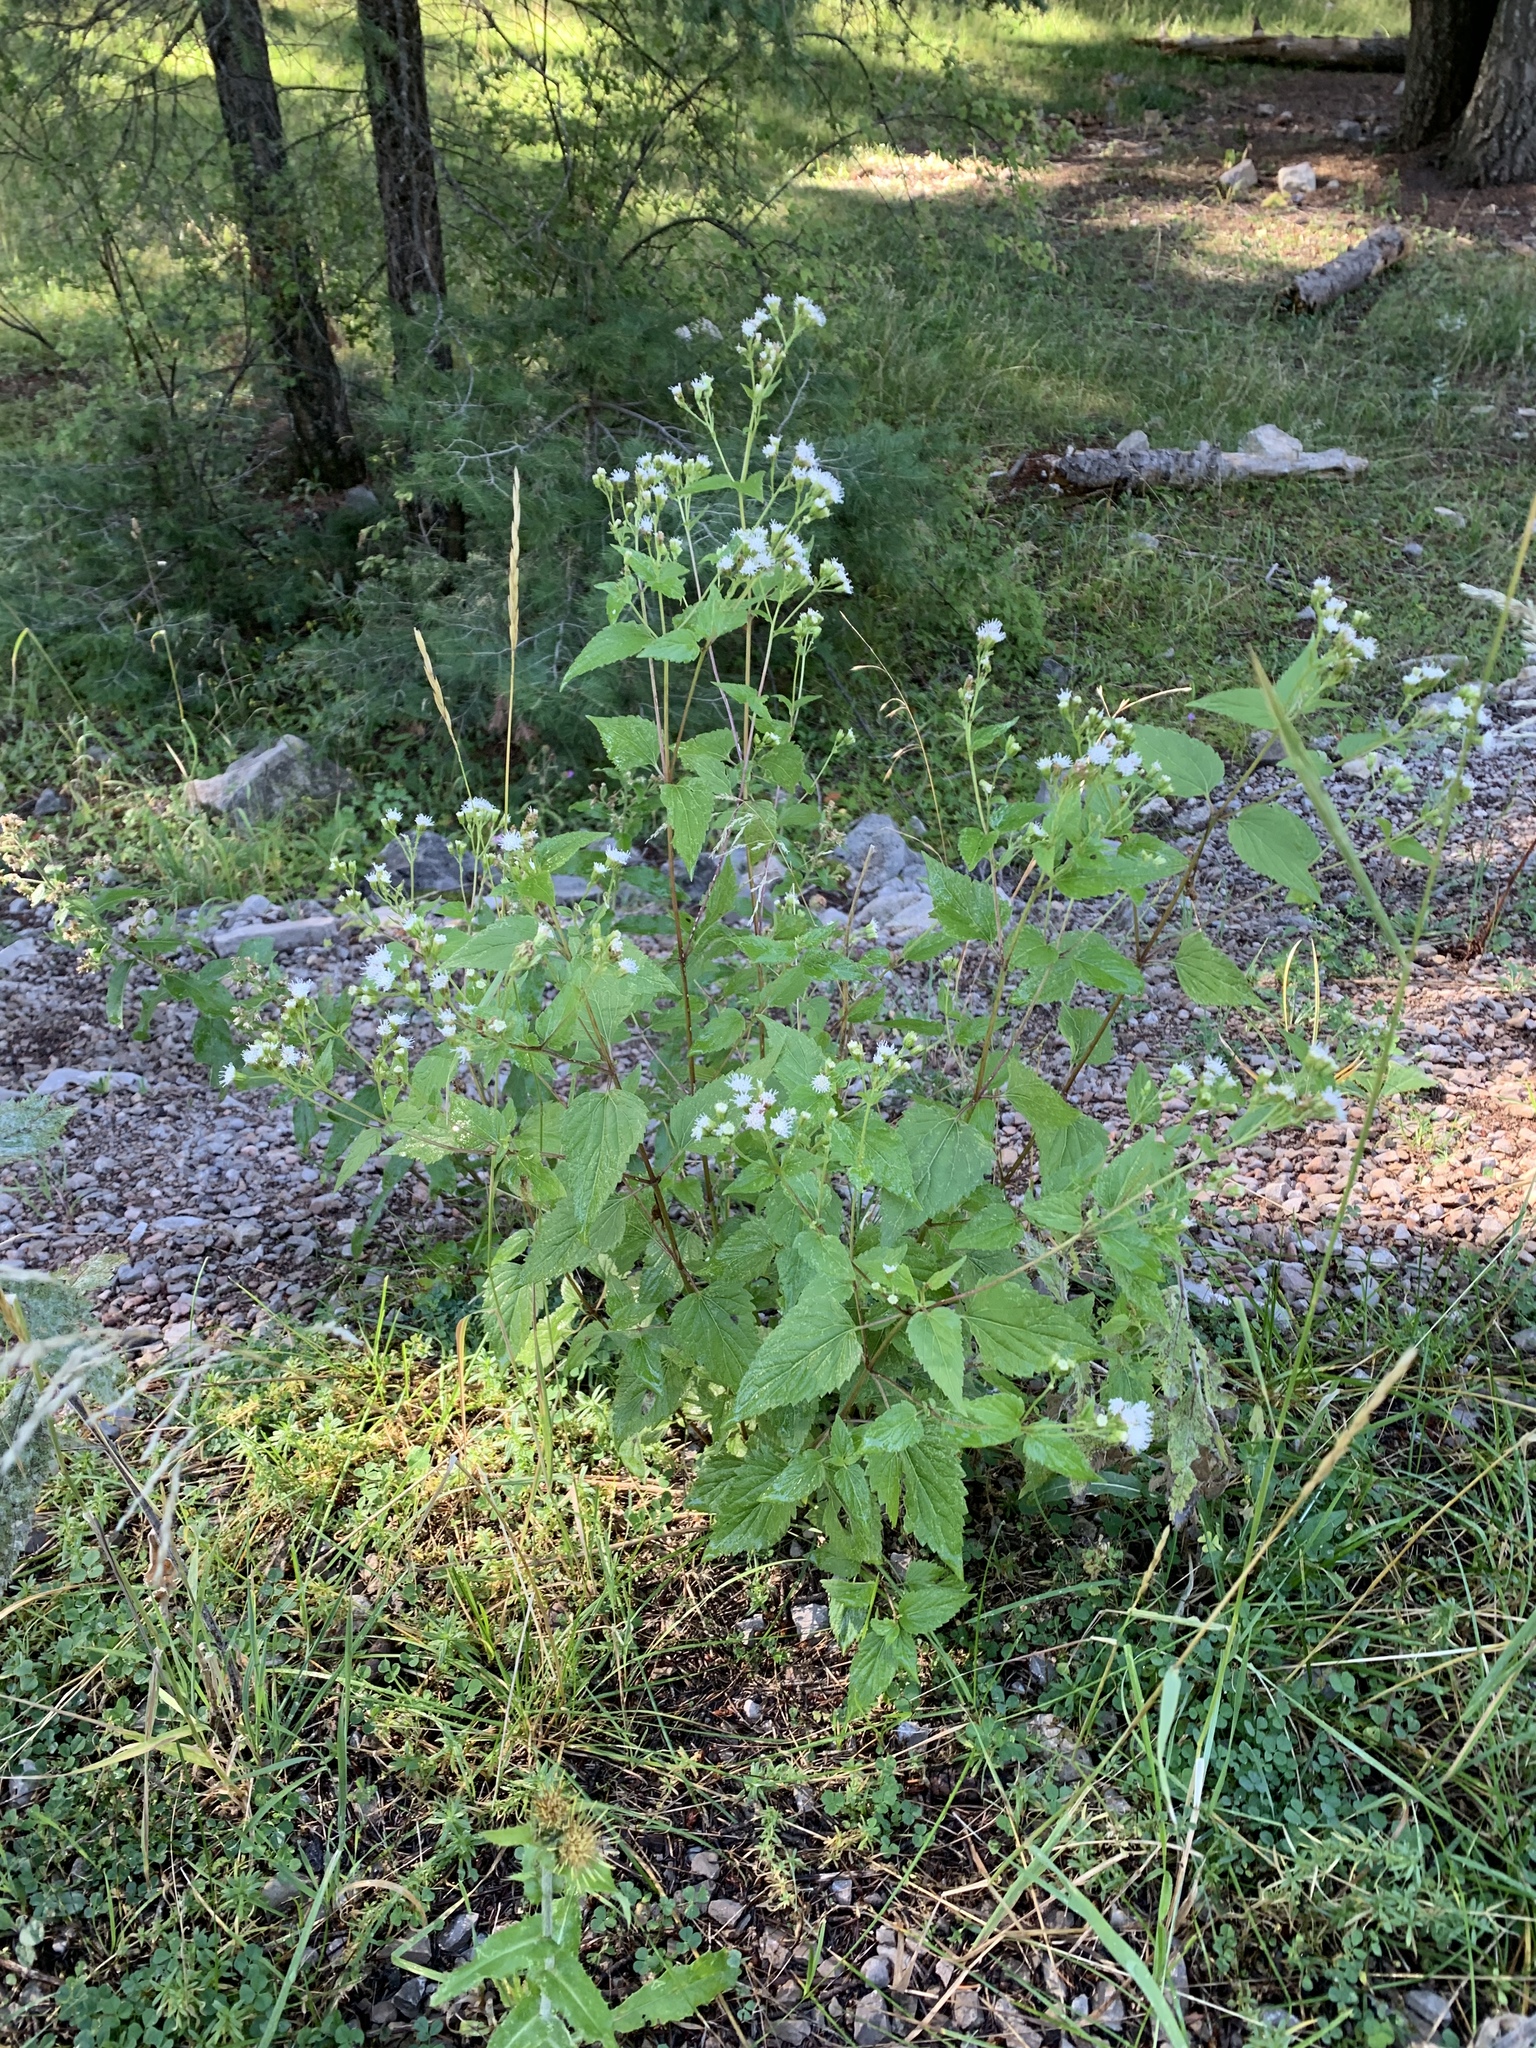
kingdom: Plantae
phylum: Tracheophyta
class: Magnoliopsida
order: Asterales
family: Asteraceae
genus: Ageratina
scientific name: Ageratina rothrockii
